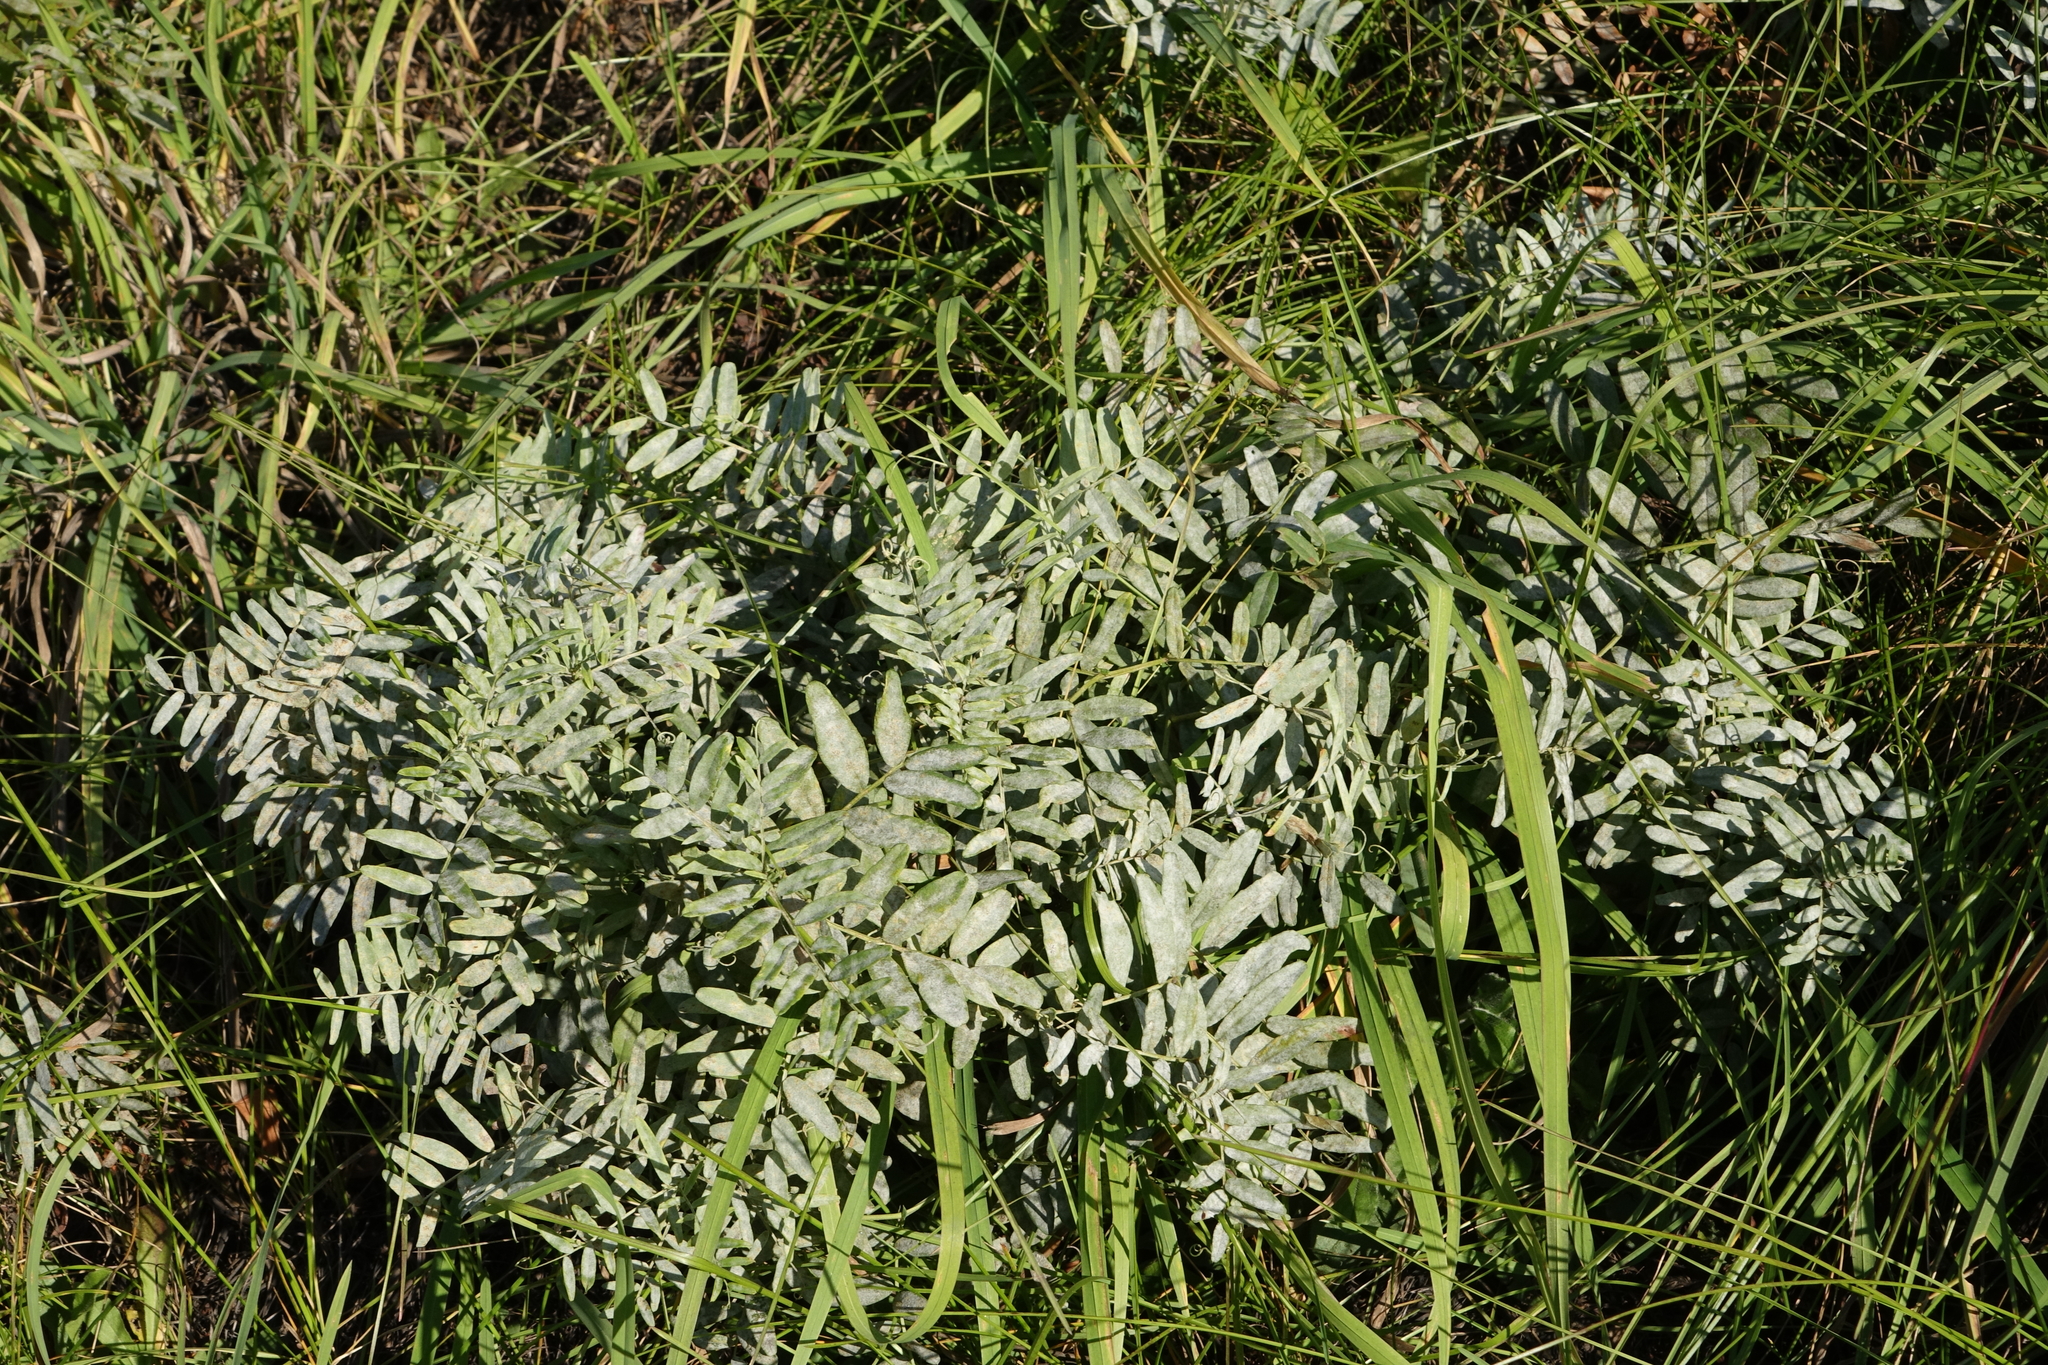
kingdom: Plantae
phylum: Tracheophyta
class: Magnoliopsida
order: Fabales
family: Fabaceae
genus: Vicia
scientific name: Vicia amoena
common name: Cheder ebs
